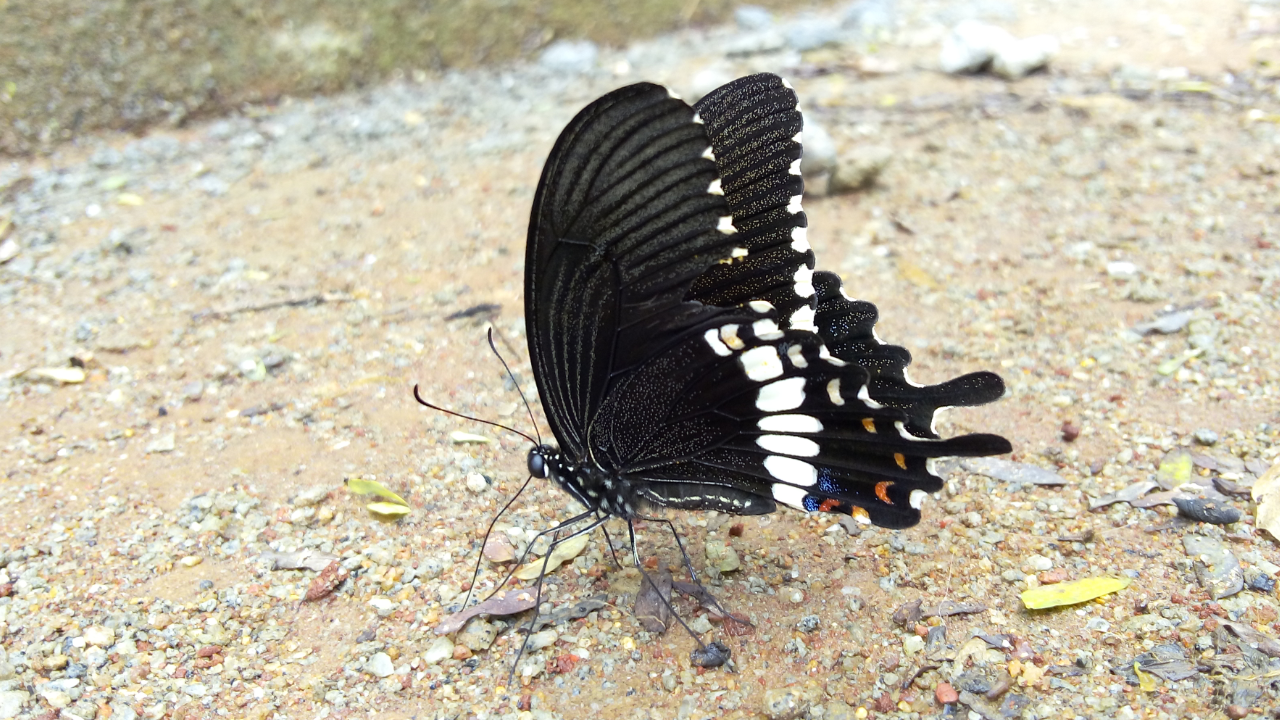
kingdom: Animalia
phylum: Arthropoda
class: Insecta
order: Lepidoptera
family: Papilionidae
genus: Papilio
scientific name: Papilio polytes
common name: Common mormon
